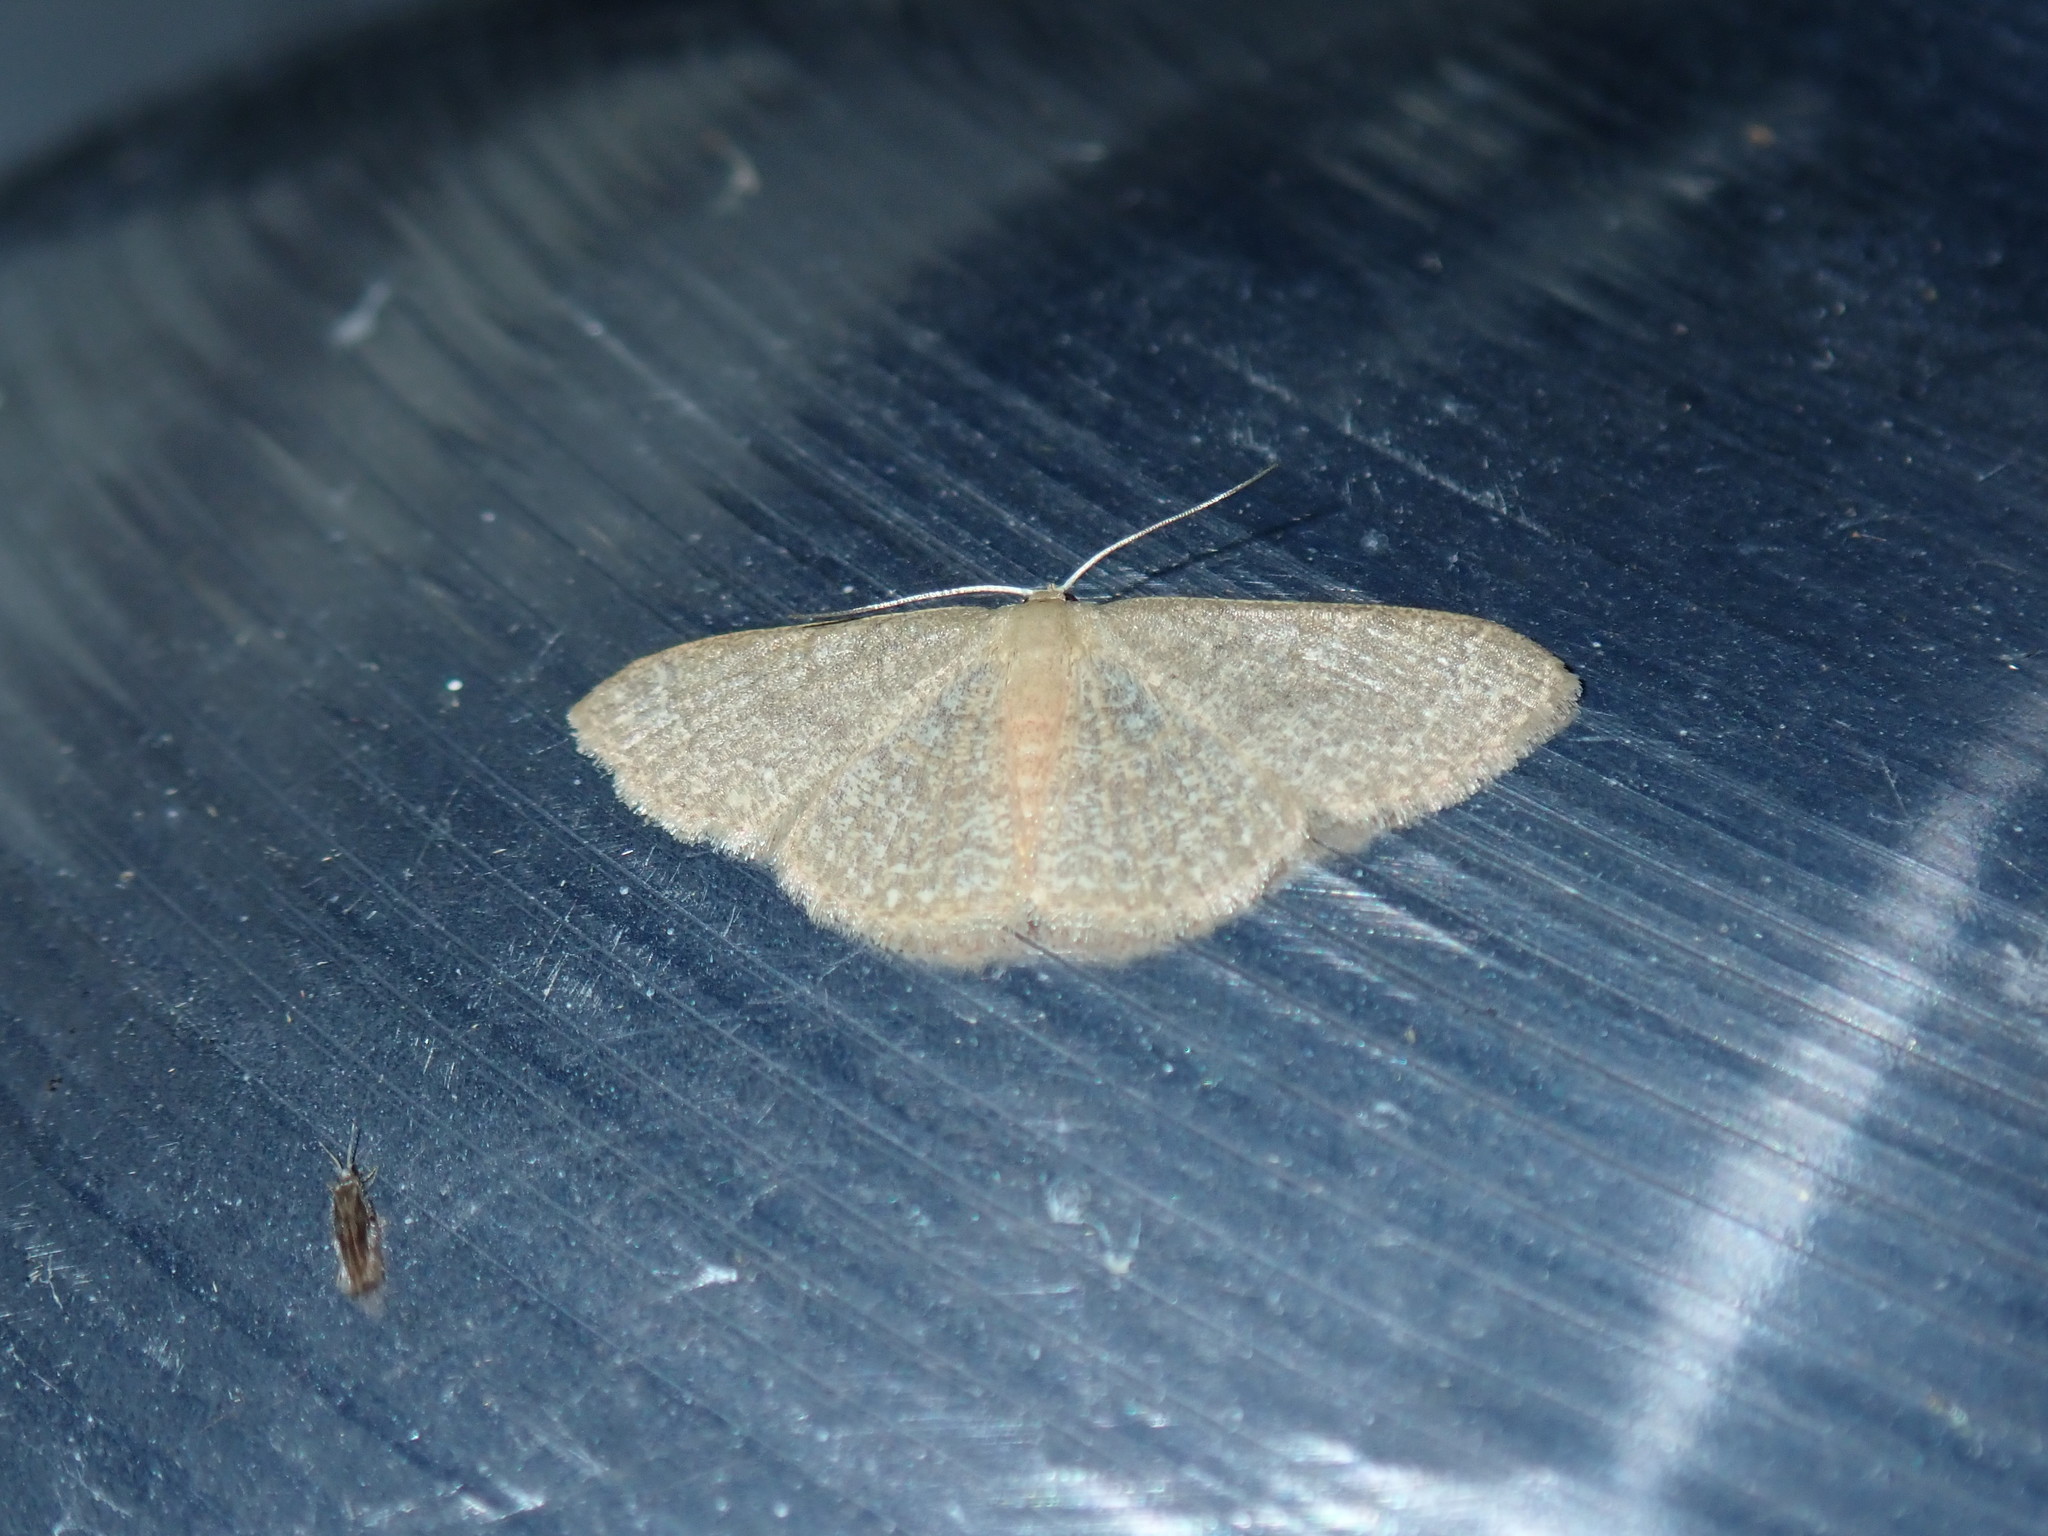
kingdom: Animalia
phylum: Arthropoda
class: Insecta
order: Lepidoptera
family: Geometridae
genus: Pleuroprucha
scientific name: Pleuroprucha insulsaria
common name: Common tan wave
